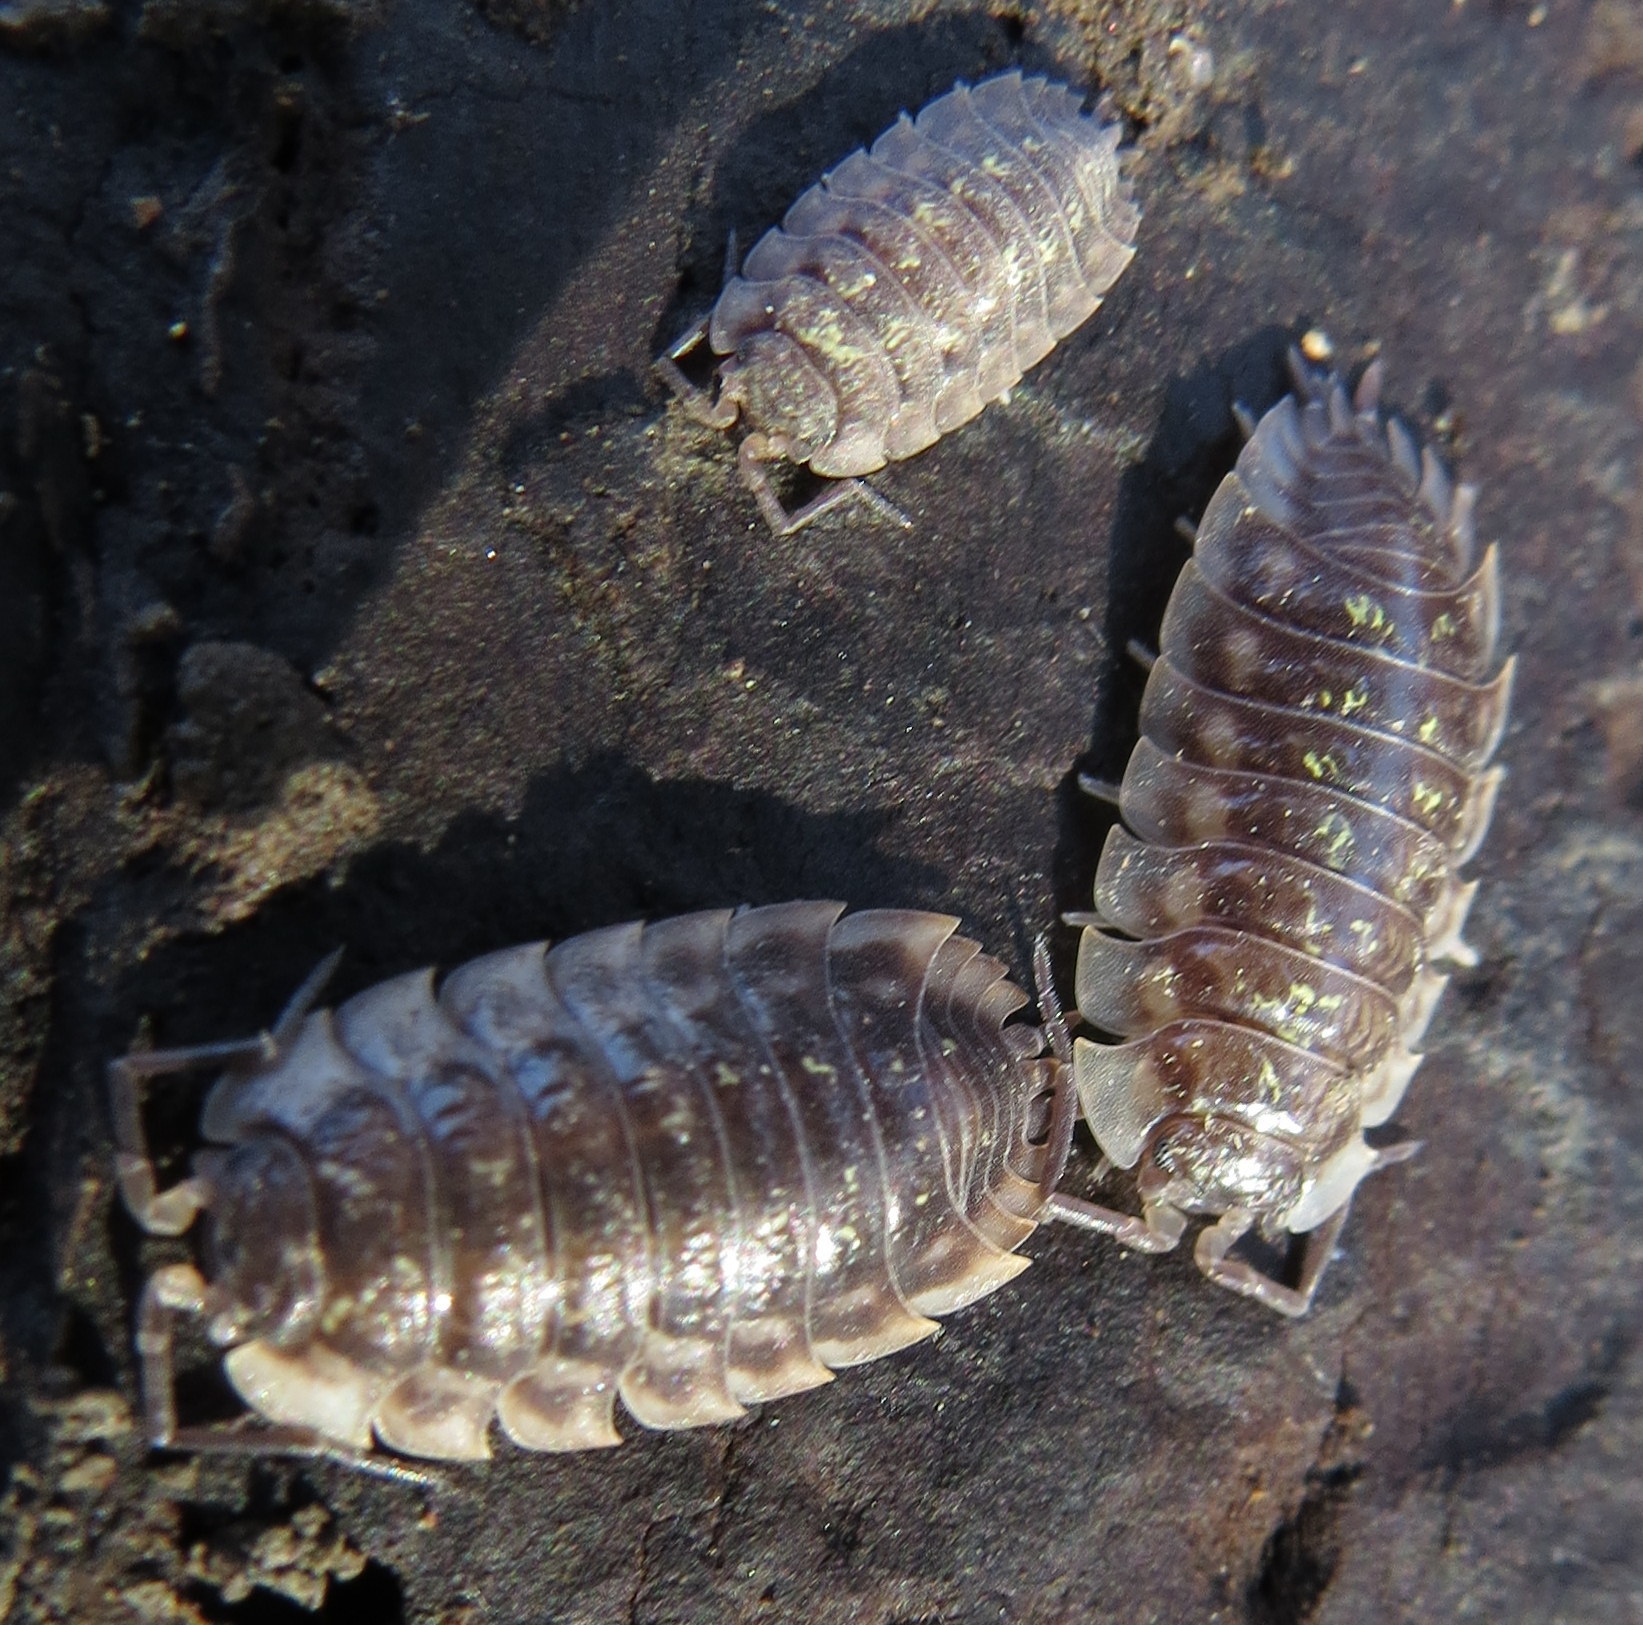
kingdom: Animalia
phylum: Arthropoda
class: Malacostraca
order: Isopoda
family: Oniscidae
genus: Oniscus
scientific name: Oniscus asellus
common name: Common shiny woodlouse
